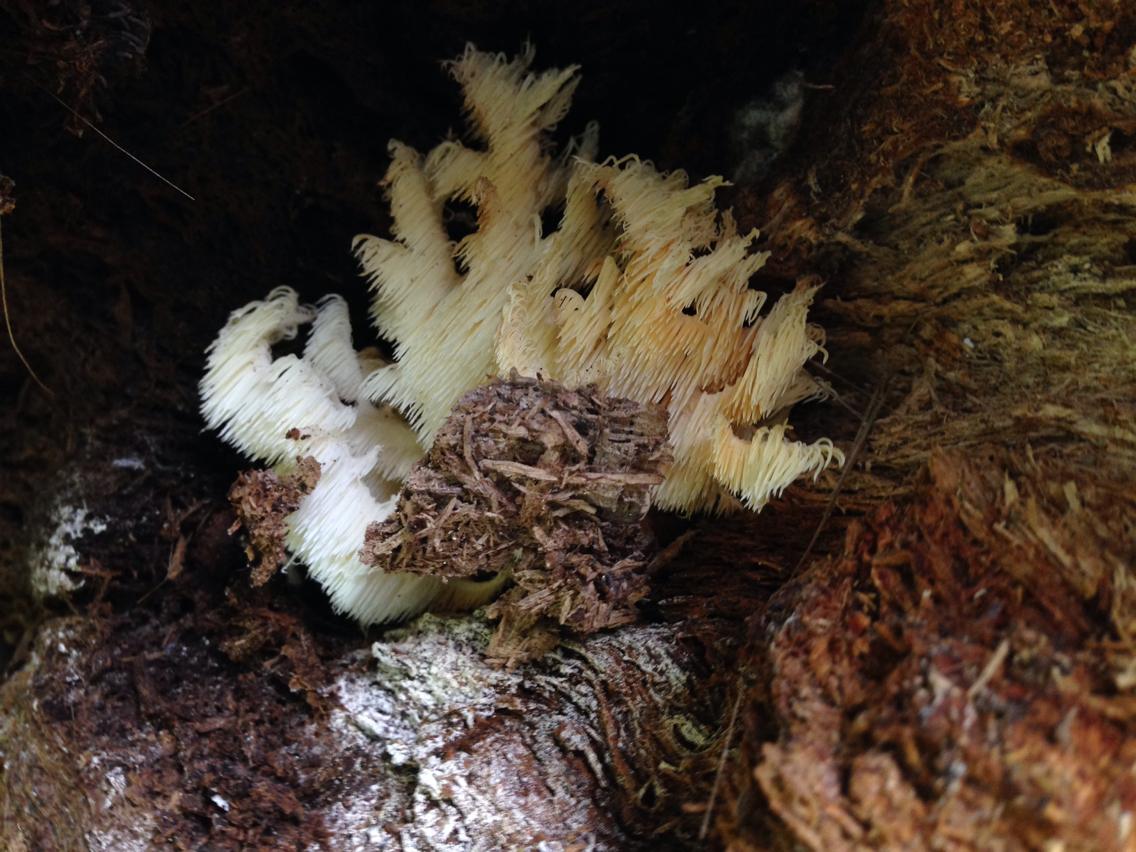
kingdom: Fungi
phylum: Basidiomycota
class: Agaricomycetes
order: Russulales
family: Hericiaceae
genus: Hericium
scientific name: Hericium coralloides
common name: Coral tooth
